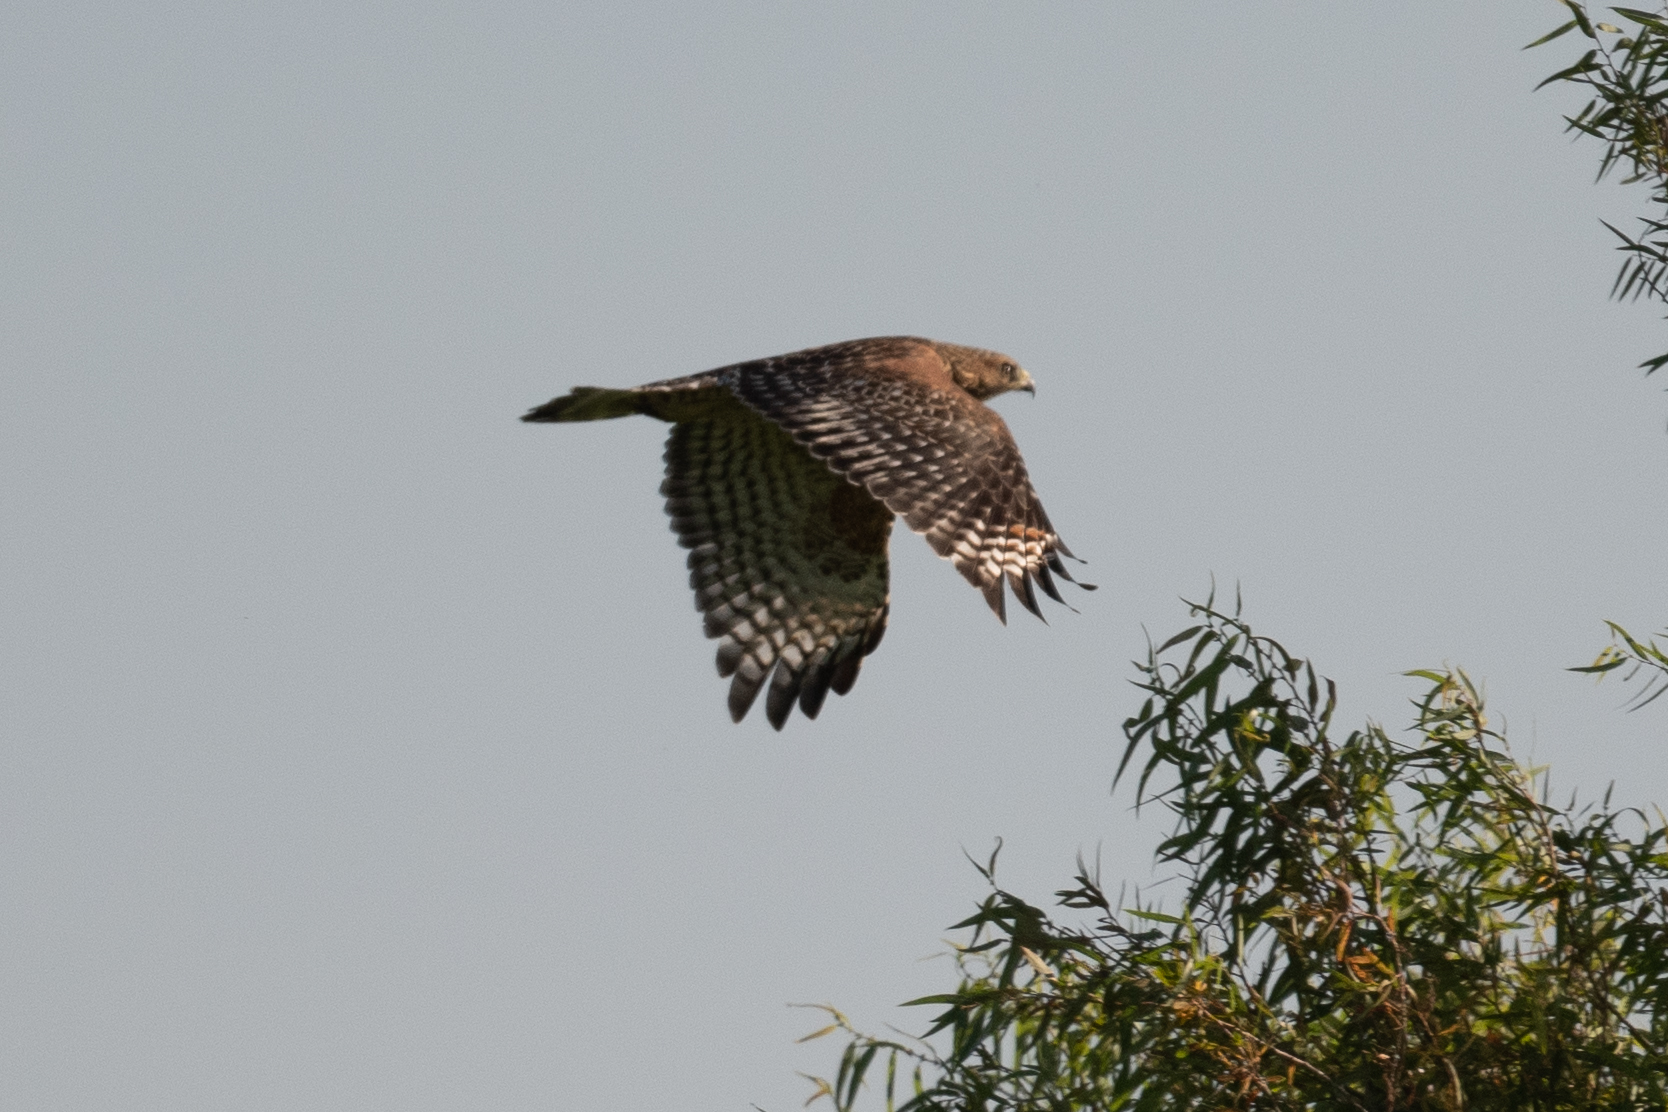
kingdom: Animalia
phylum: Chordata
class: Aves
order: Accipitriformes
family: Accipitridae
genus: Buteo
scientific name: Buteo lineatus
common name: Red-shouldered hawk
